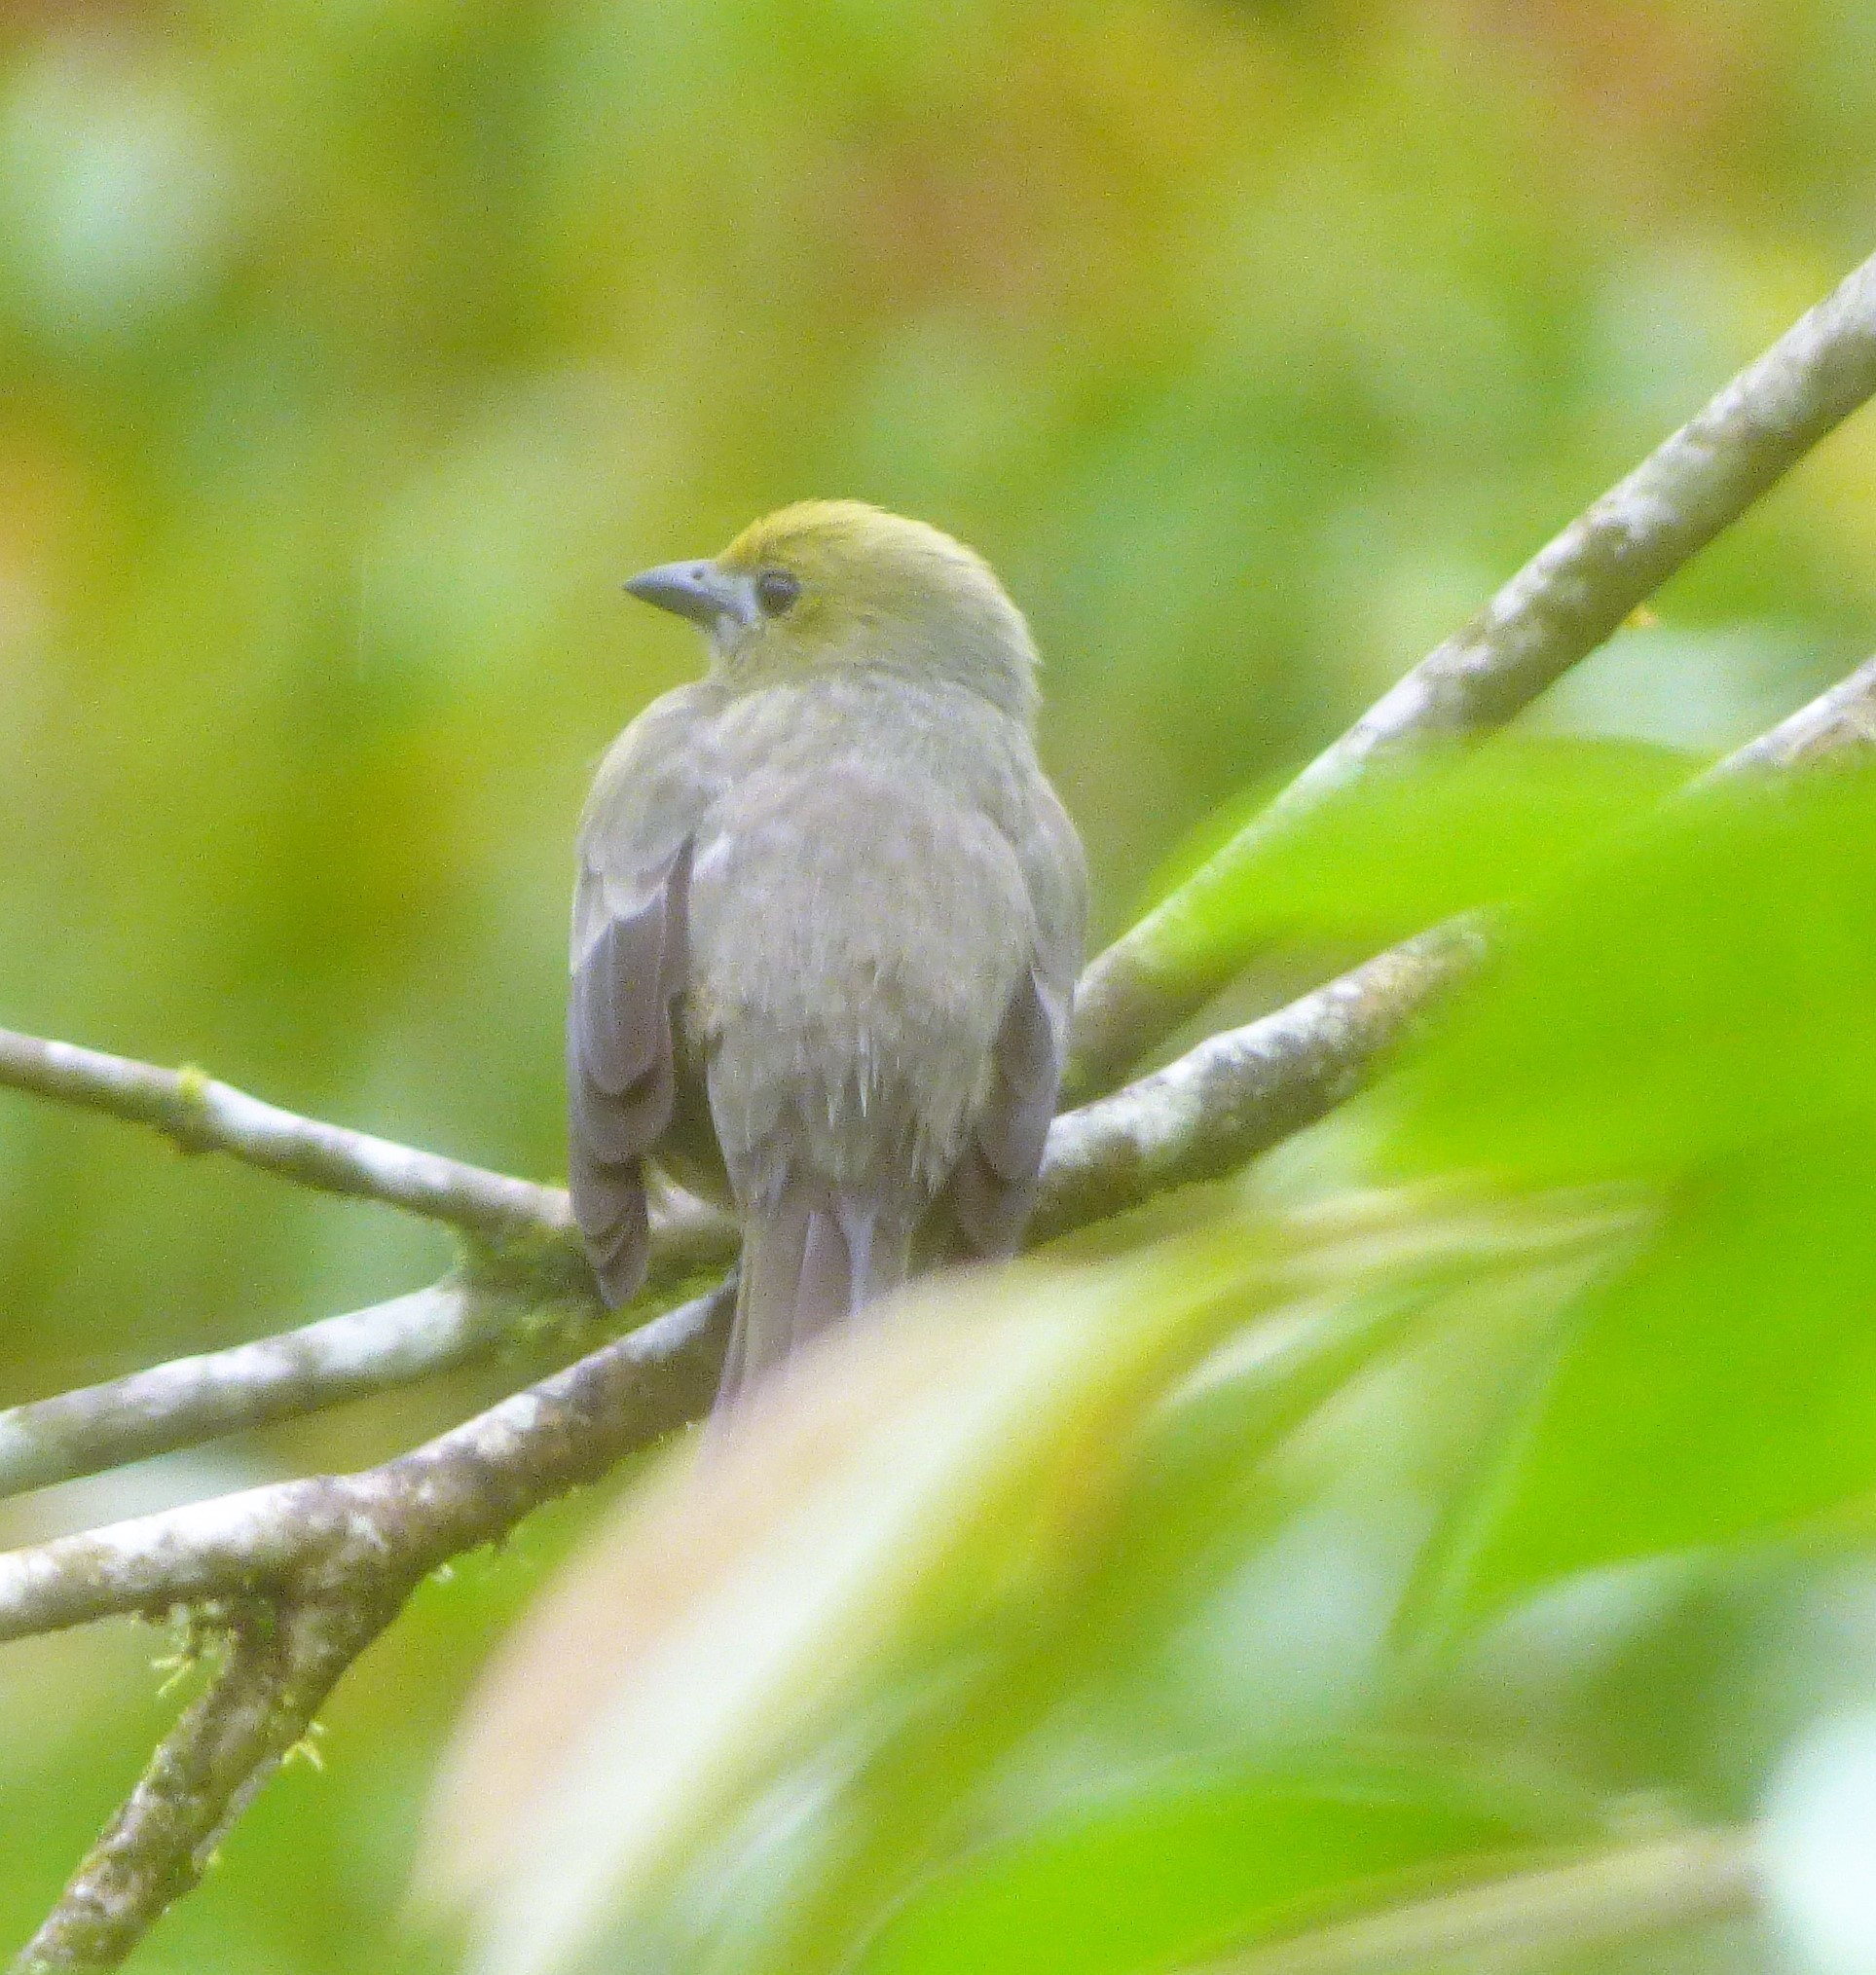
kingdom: Animalia
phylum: Chordata
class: Aves
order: Passeriformes
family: Thraupidae
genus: Thraupis
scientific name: Thraupis palmarum
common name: Palm tanager
